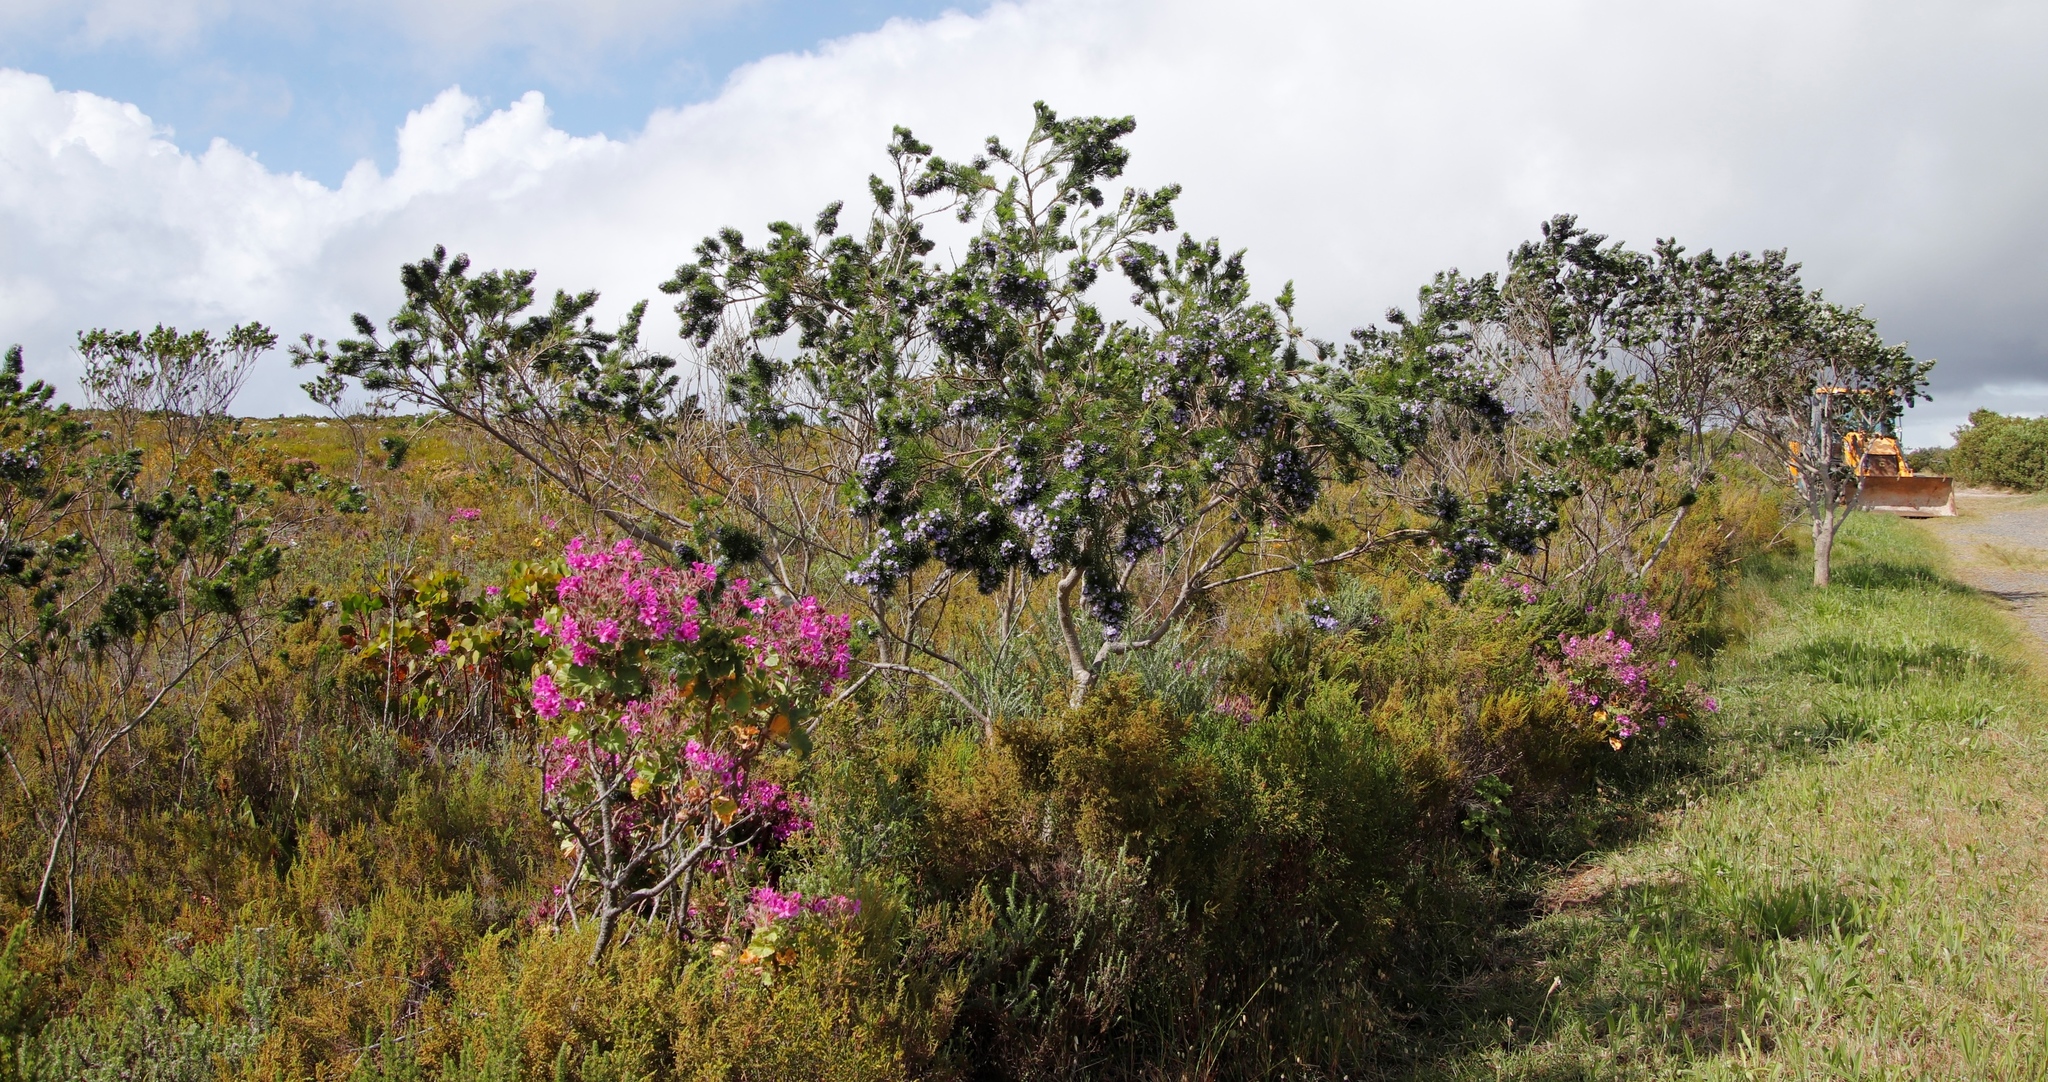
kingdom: Plantae
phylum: Tracheophyta
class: Magnoliopsida
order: Fabales
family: Fabaceae
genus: Psoralea
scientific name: Psoralea pinnata
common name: African scurfpea
